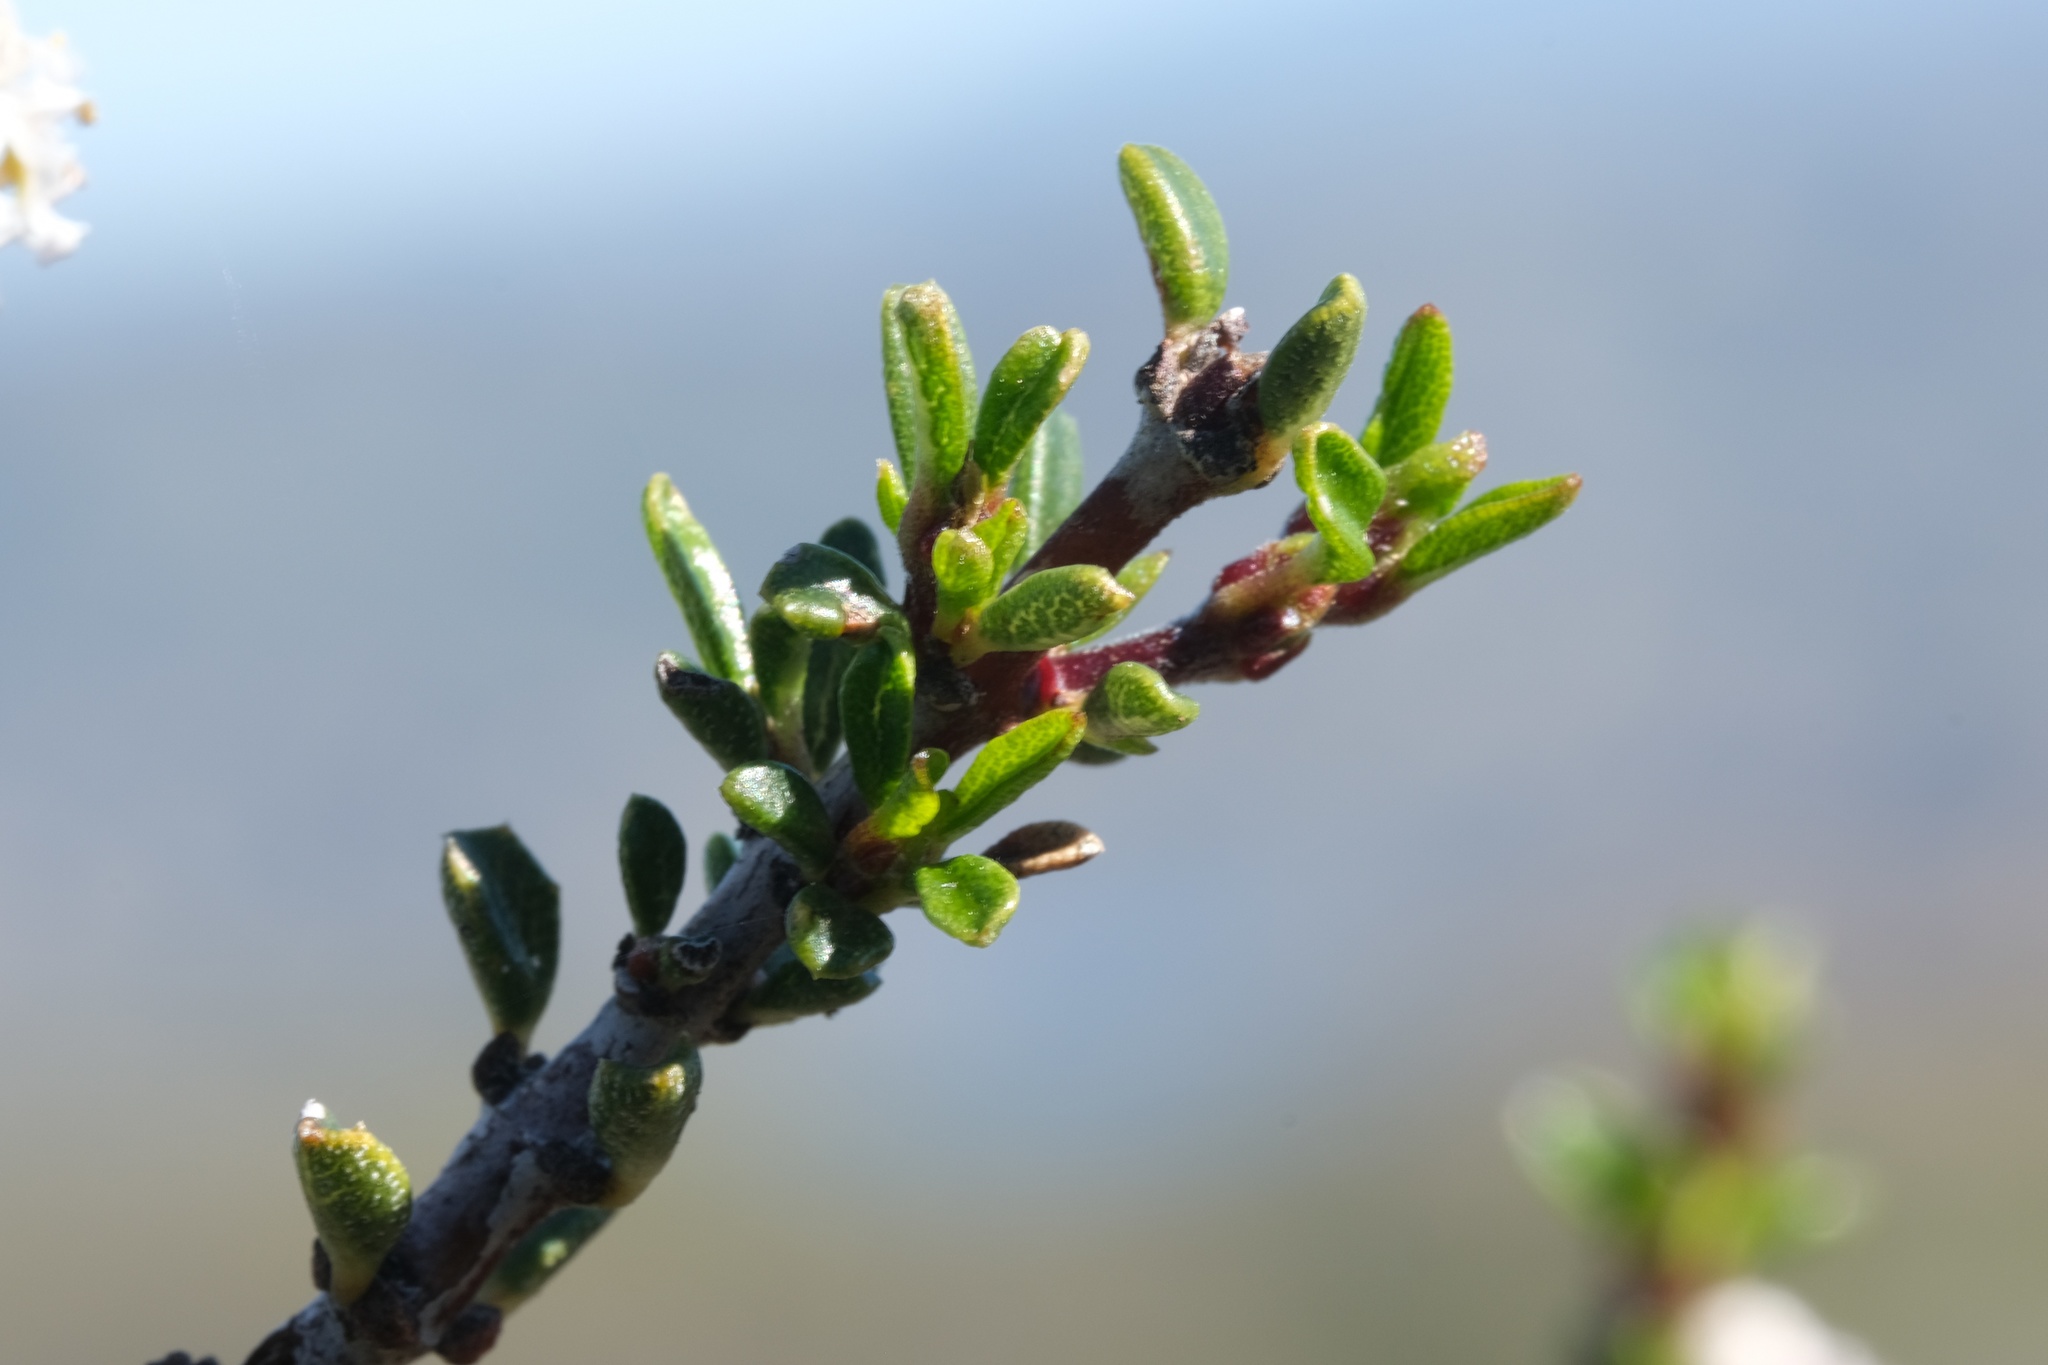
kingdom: Plantae
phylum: Tracheophyta
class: Magnoliopsida
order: Rosales
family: Rhamnaceae
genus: Ceanothus
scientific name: Ceanothus ophiochilus
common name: Vail lake ceanothus
